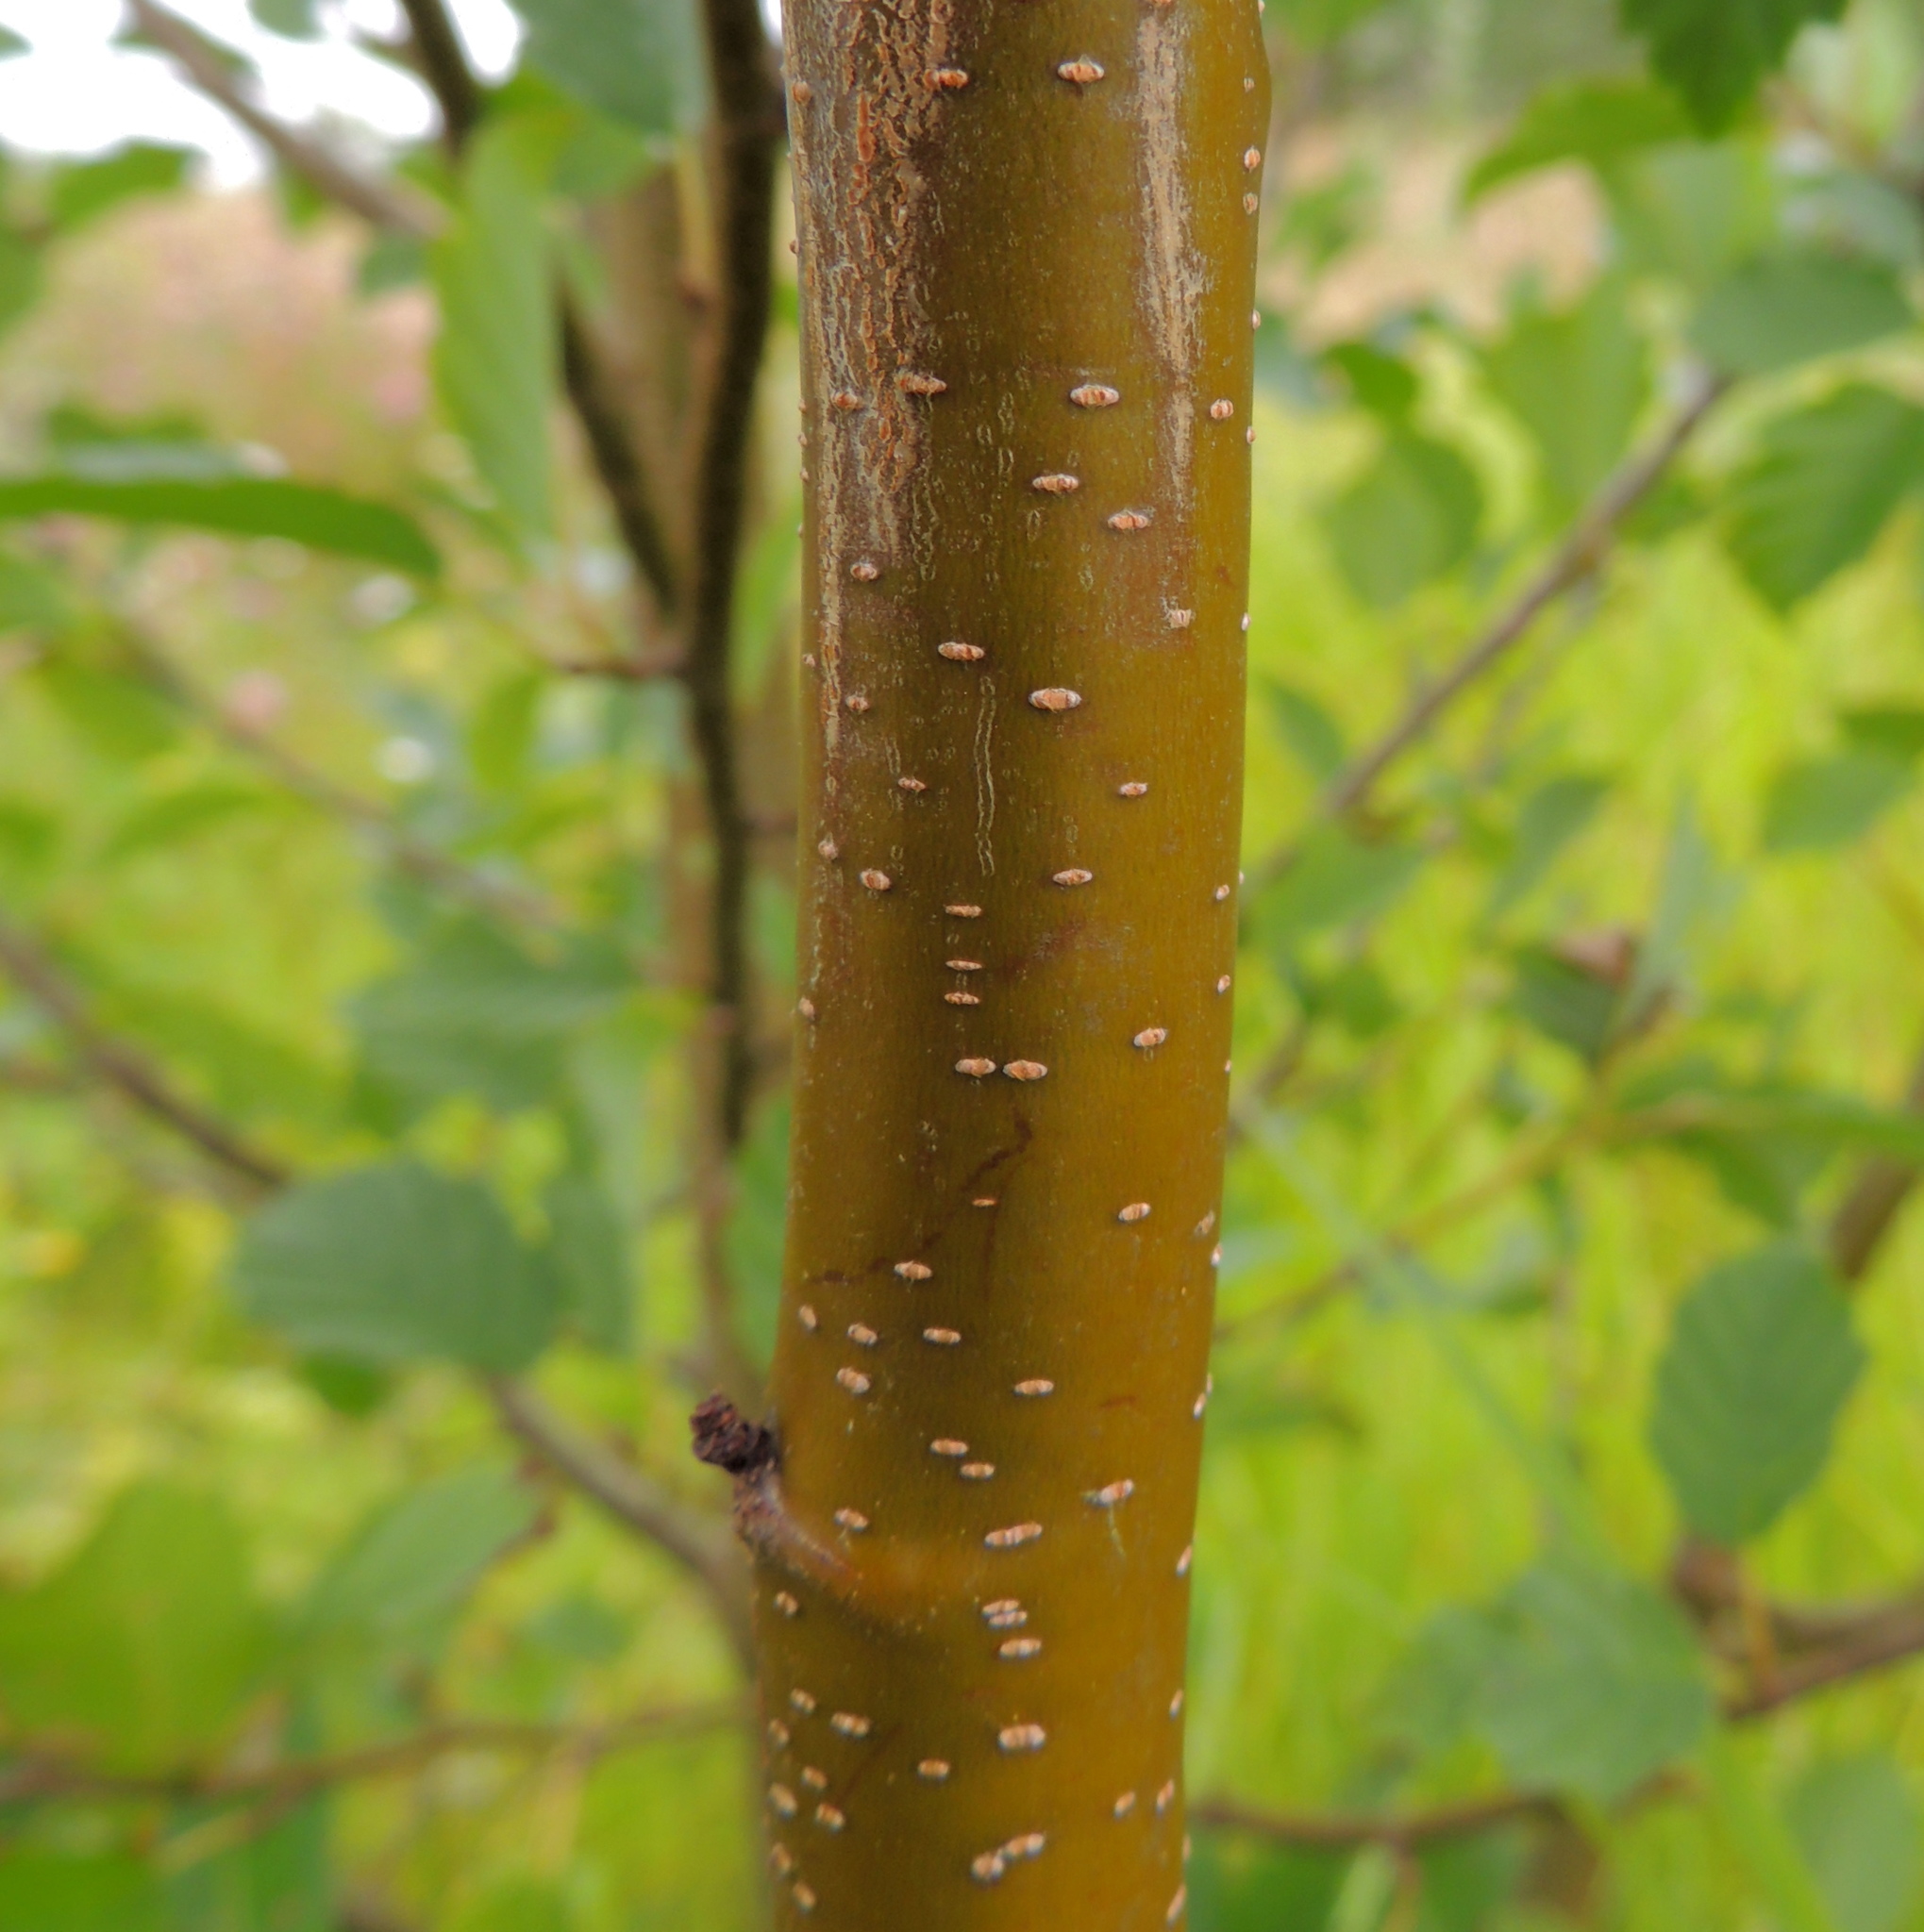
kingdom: Plantae
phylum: Tracheophyta
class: Magnoliopsida
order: Fagales
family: Betulaceae
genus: Alnus
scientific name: Alnus incana
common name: Grey alder
